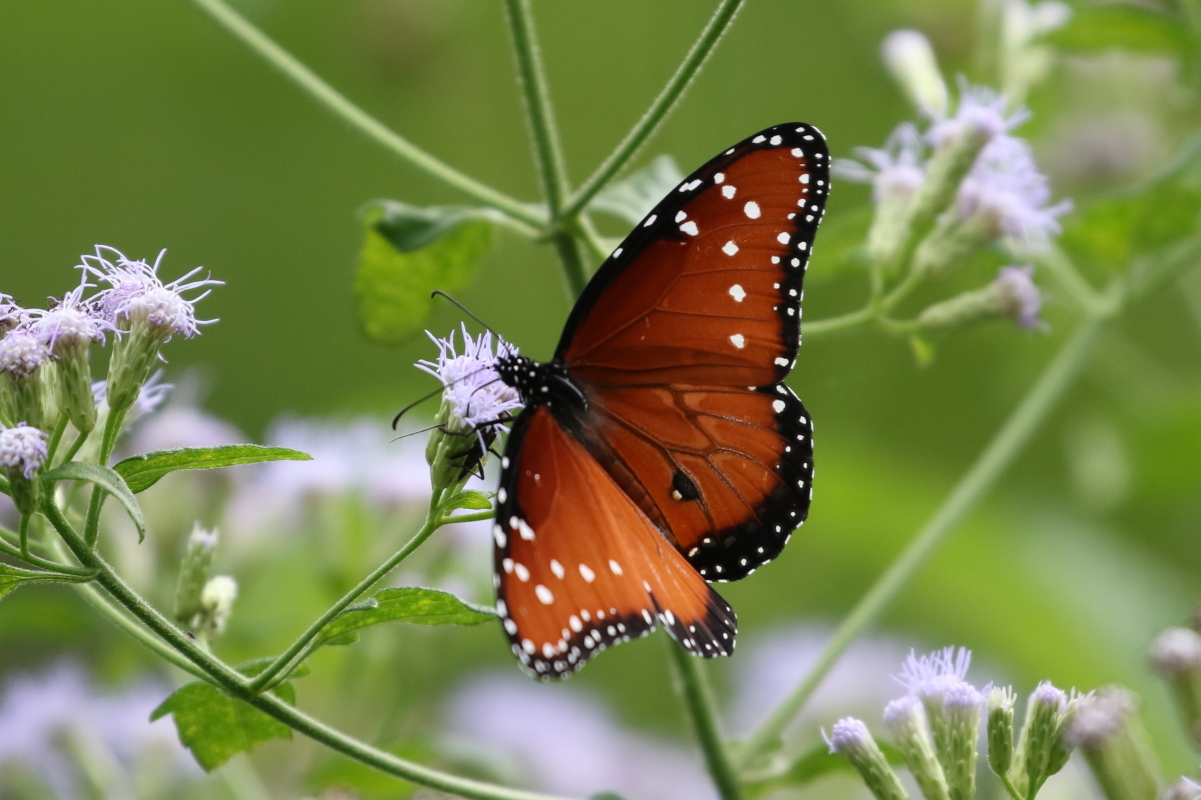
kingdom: Animalia
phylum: Arthropoda
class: Insecta
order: Lepidoptera
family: Nymphalidae
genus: Danaus
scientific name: Danaus gilippus
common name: Queen
